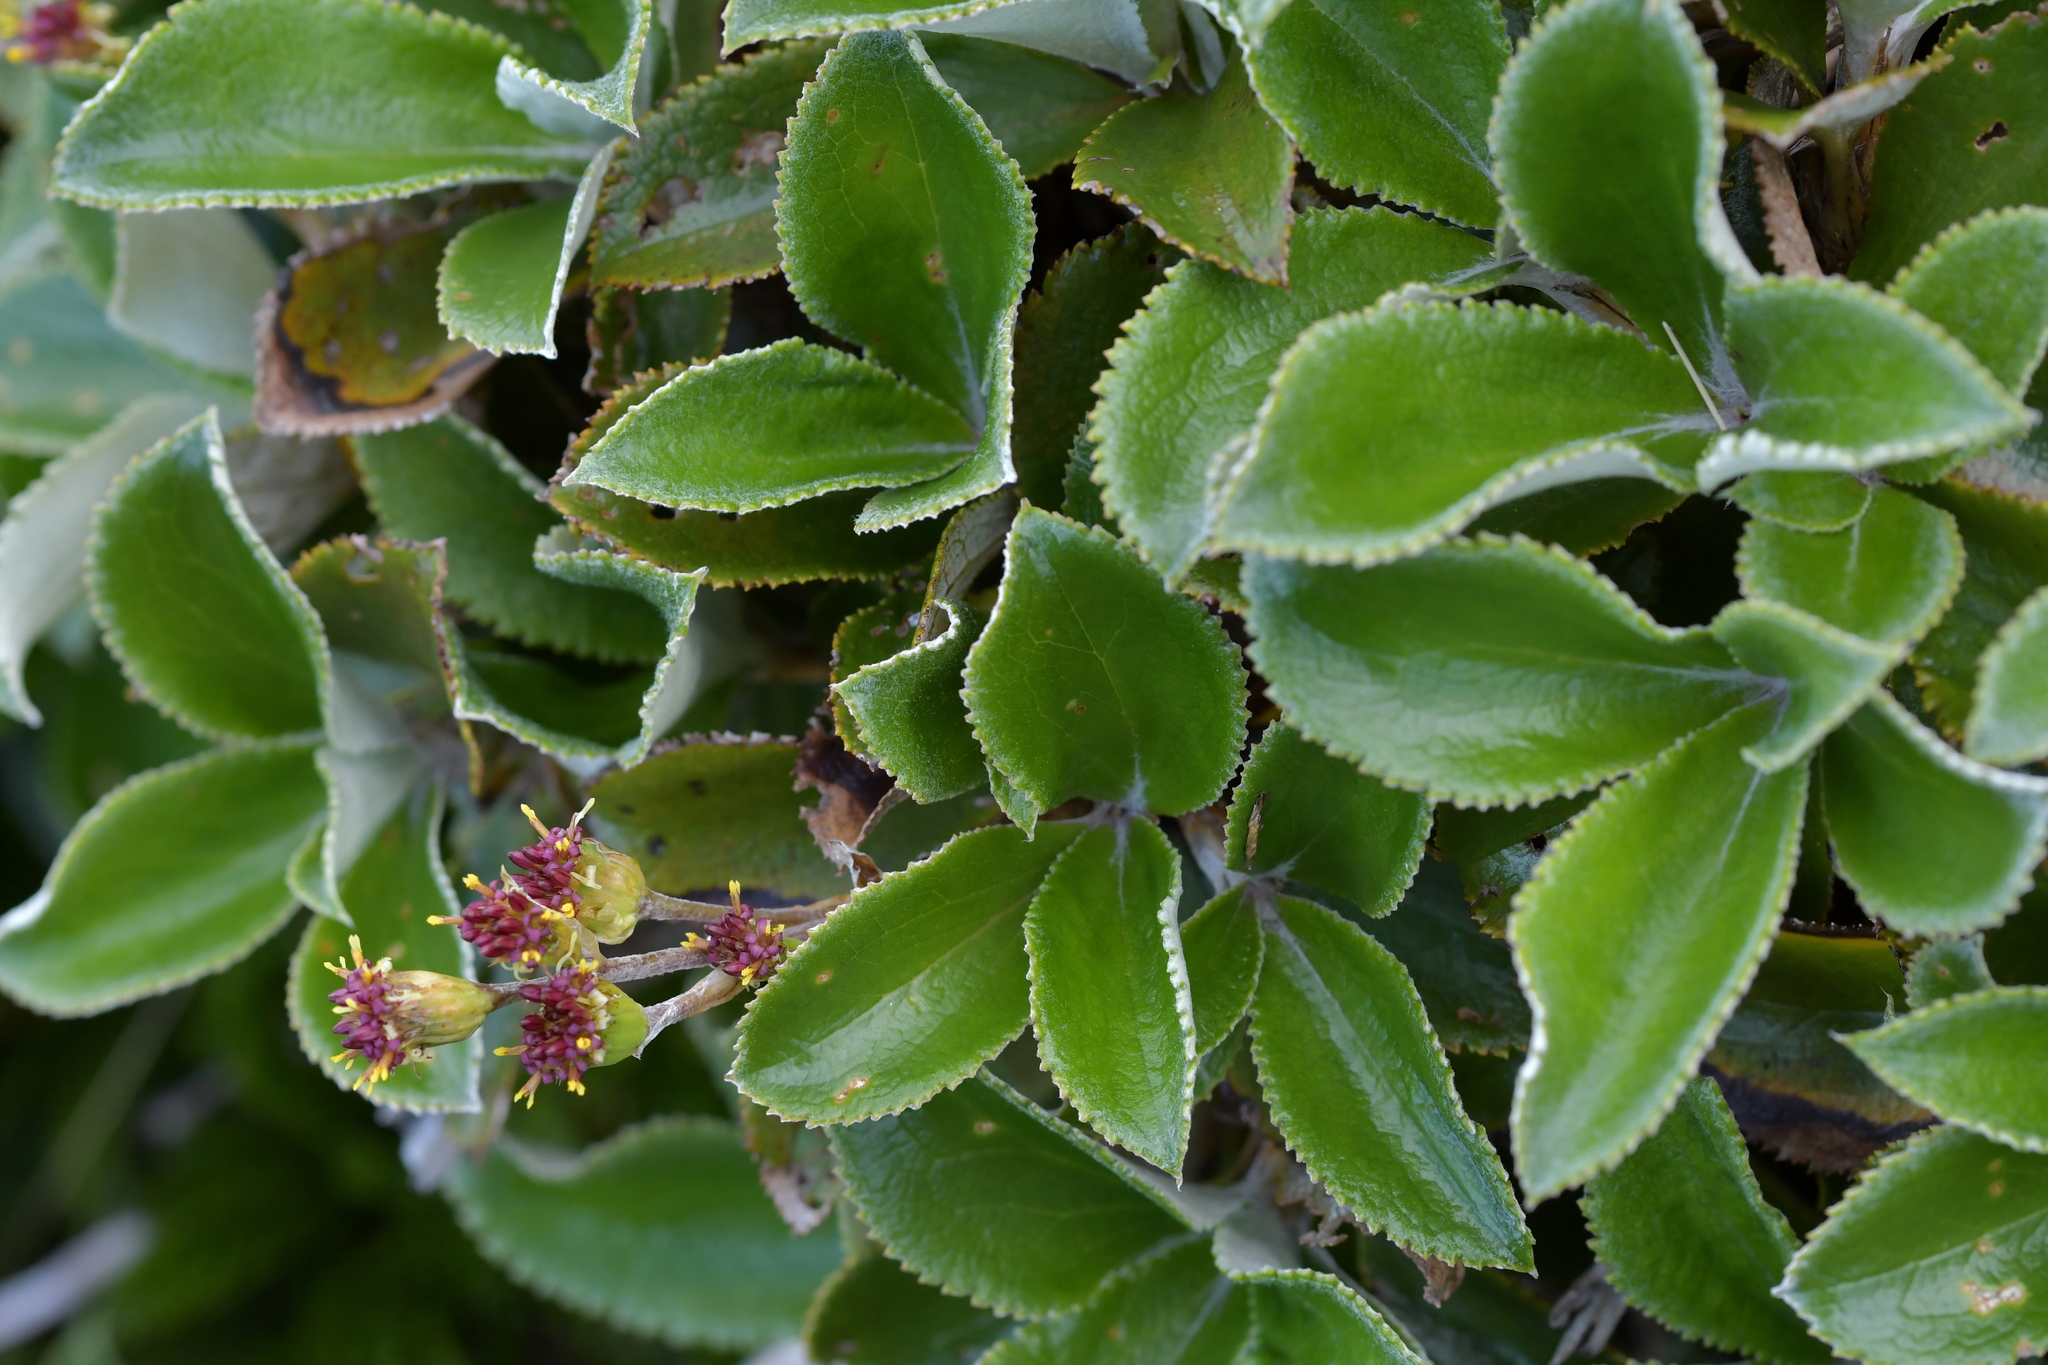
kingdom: Plantae
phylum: Tracheophyta
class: Magnoliopsida
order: Asterales
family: Asteraceae
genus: Macrolearia
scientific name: Macrolearia colensoi
